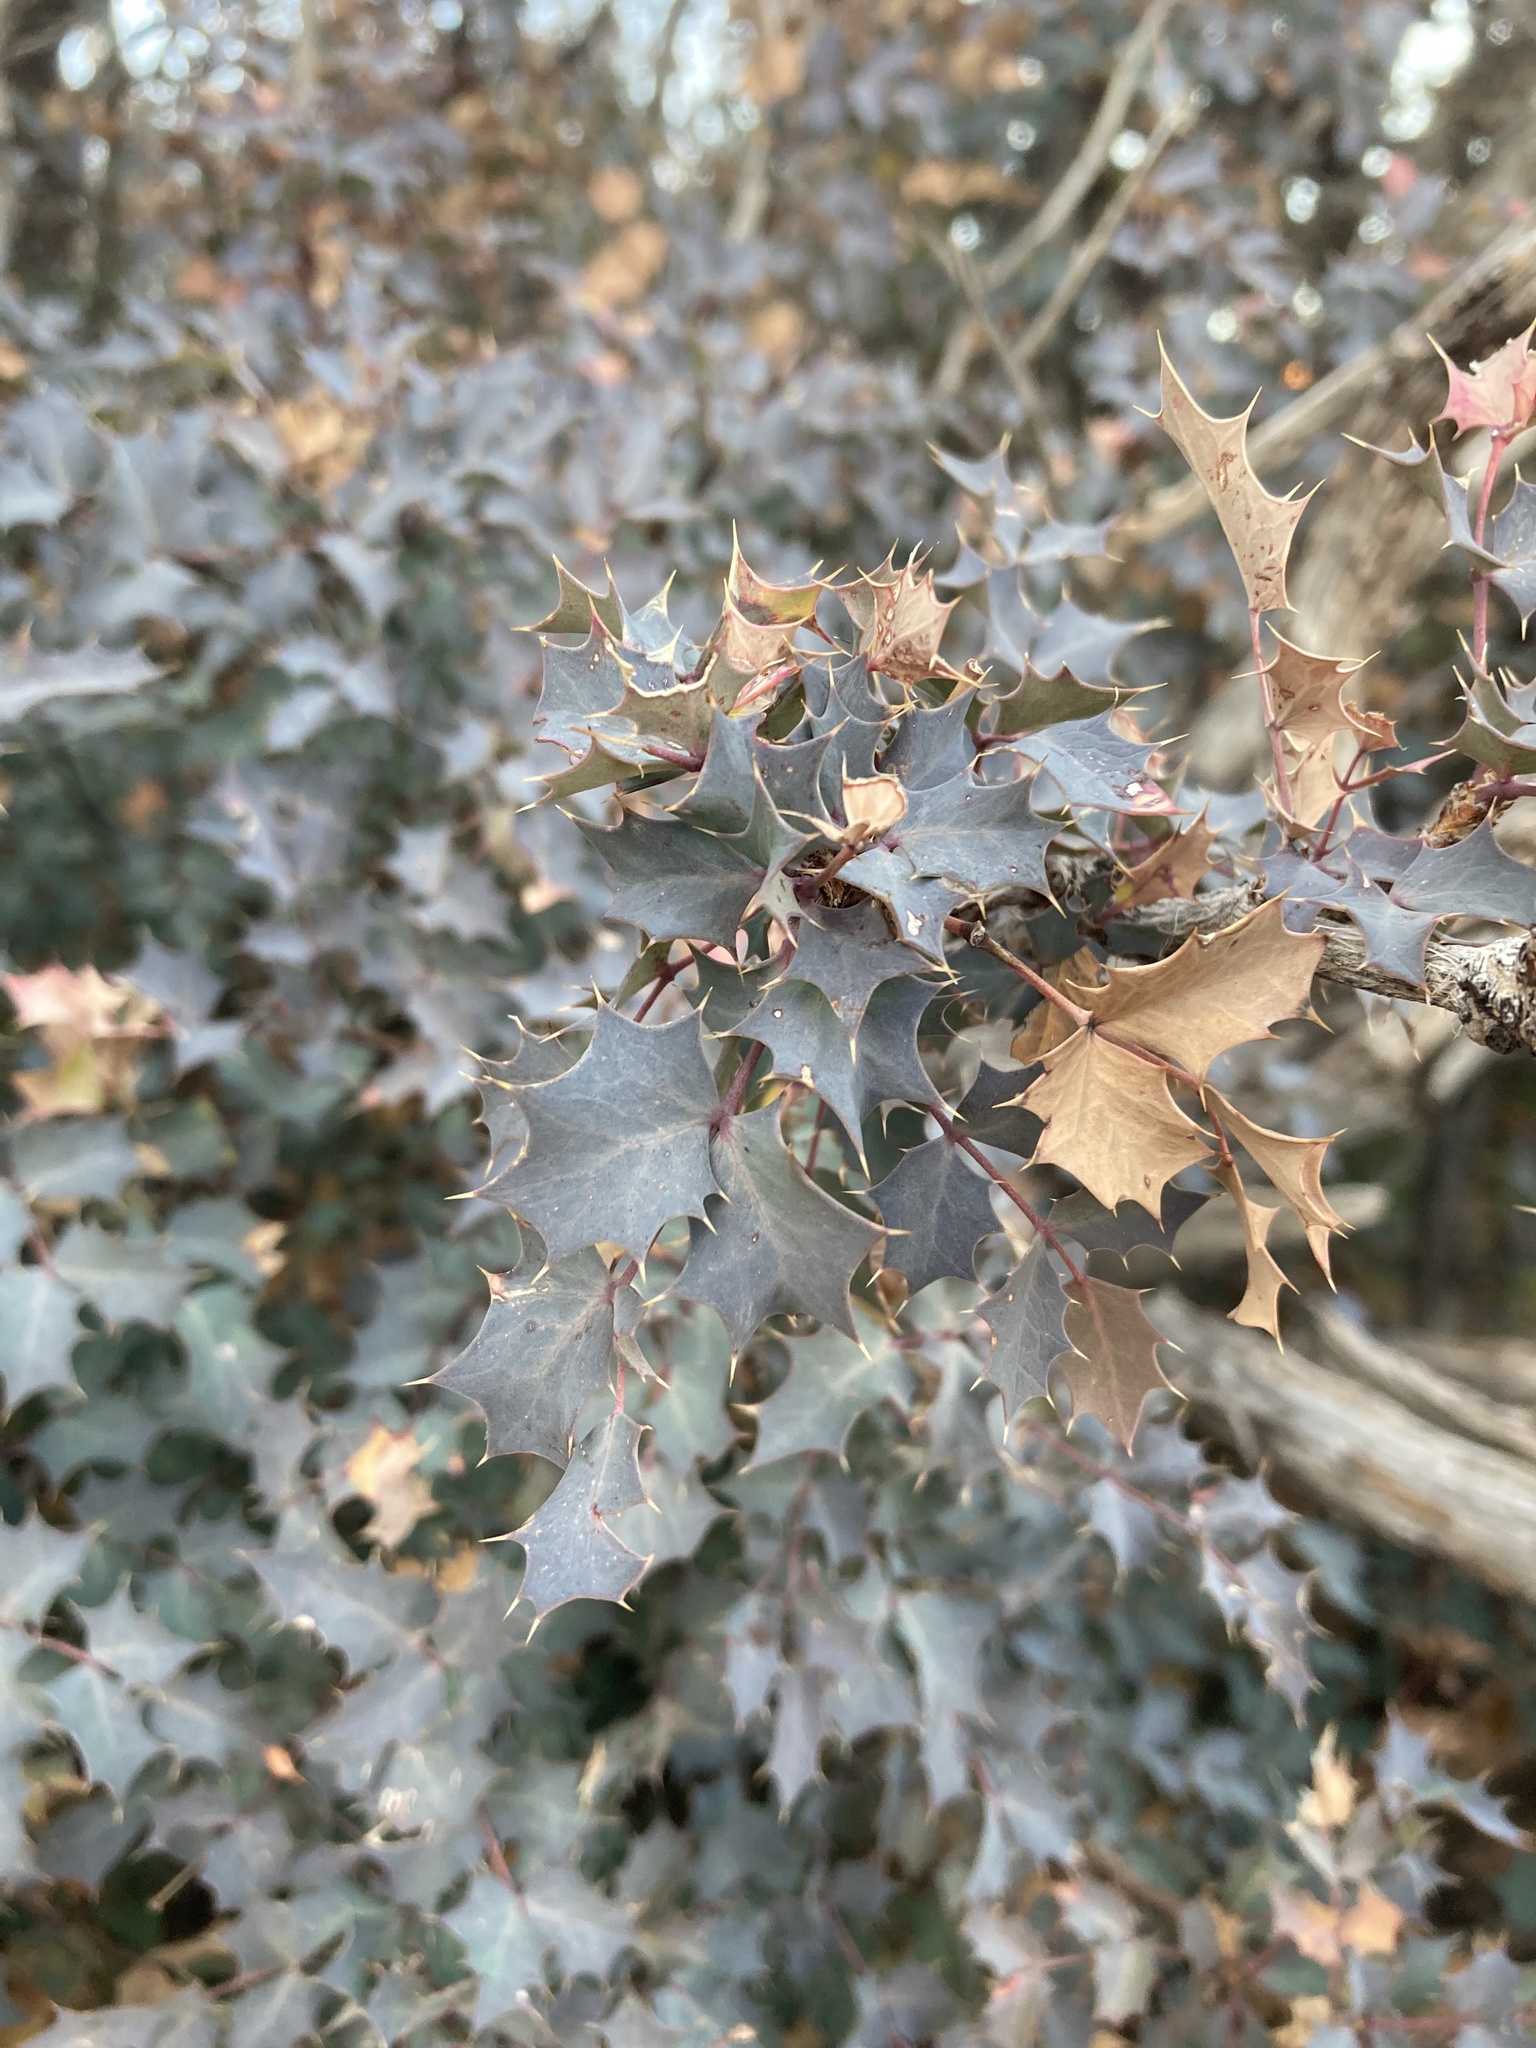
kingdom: Plantae
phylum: Tracheophyta
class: Magnoliopsida
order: Ranunculales
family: Berberidaceae
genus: Alloberberis
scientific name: Alloberberis fremontii
